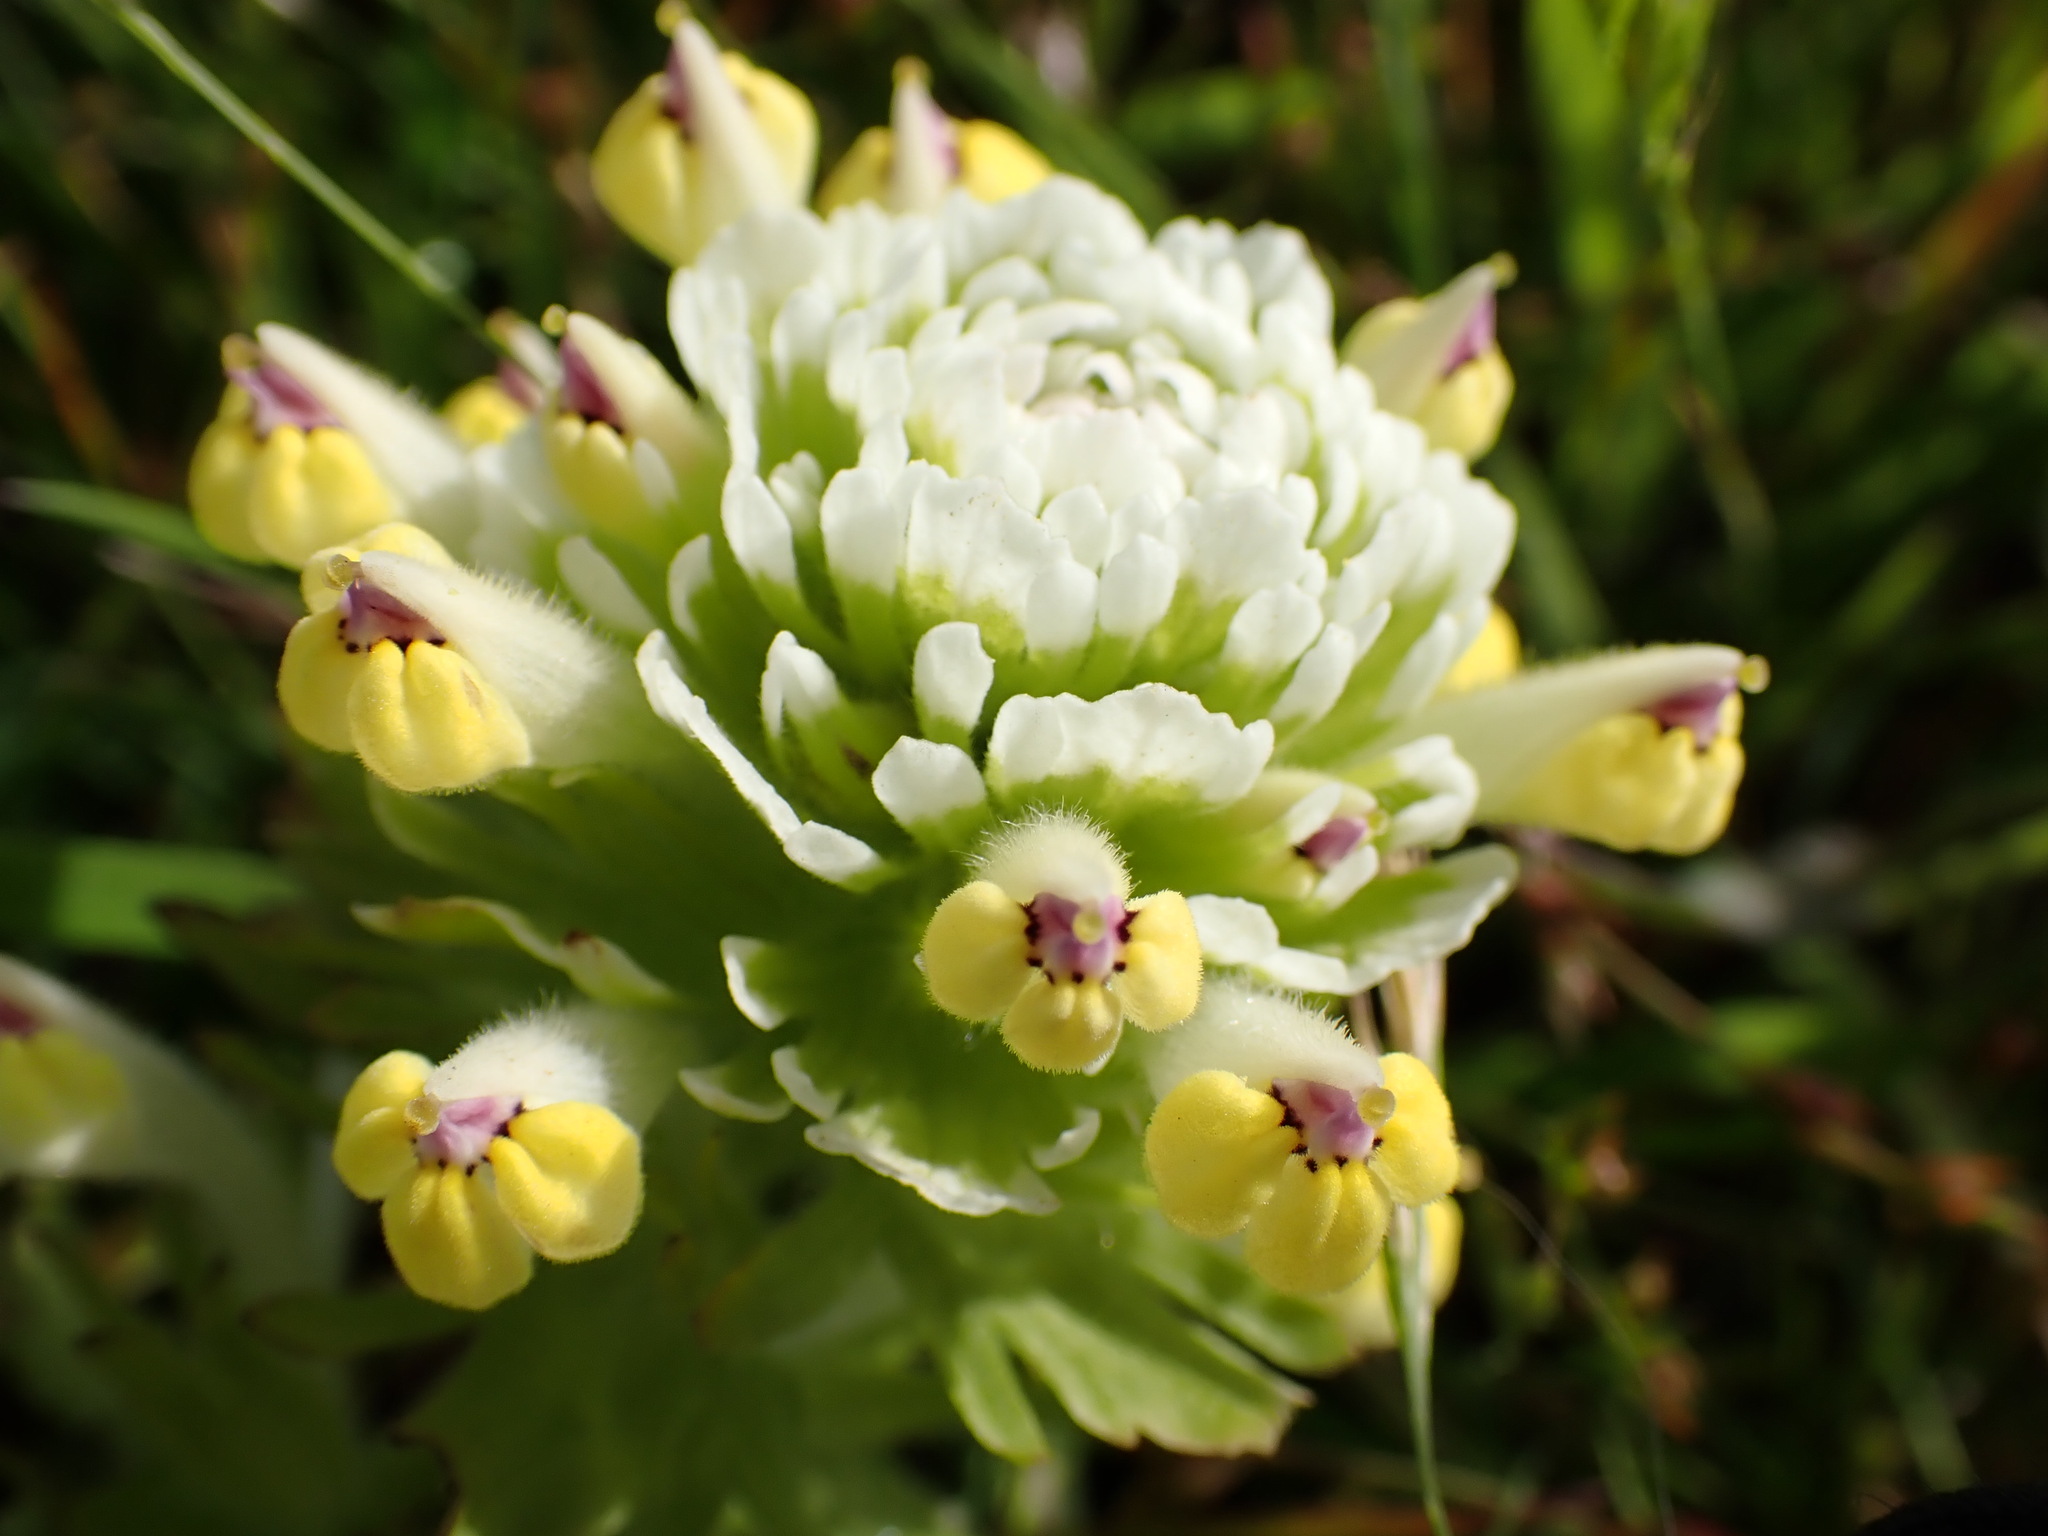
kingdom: Plantae
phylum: Tracheophyta
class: Magnoliopsida
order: Lamiales
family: Orobanchaceae
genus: Castilleja
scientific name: Castilleja ambigua
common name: Johnny-nip
